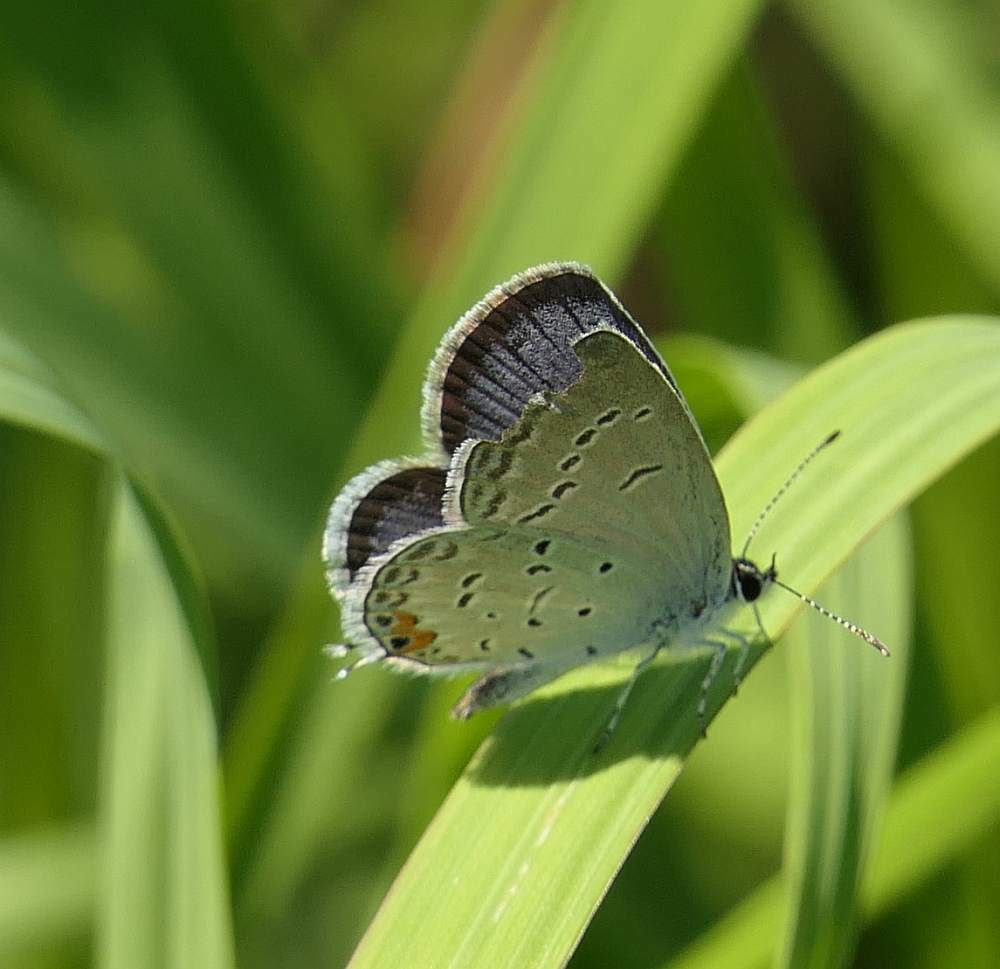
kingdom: Animalia
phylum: Arthropoda
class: Insecta
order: Lepidoptera
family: Lycaenidae
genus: Elkalyce
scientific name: Elkalyce comyntas
